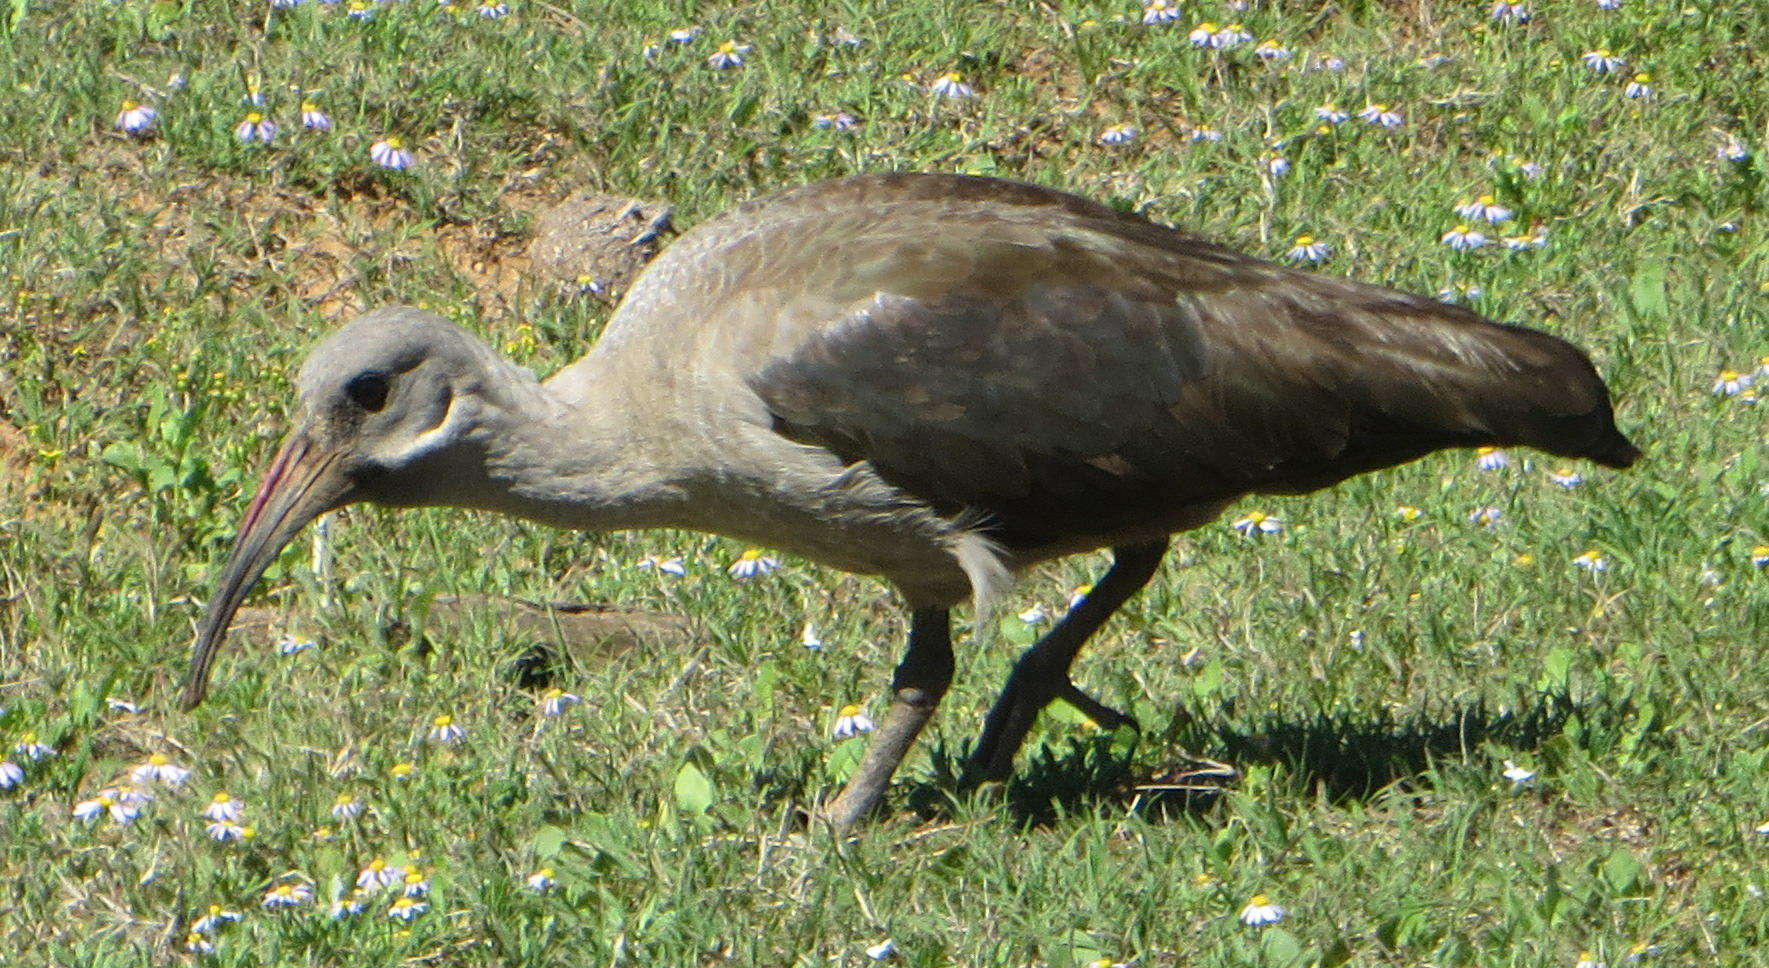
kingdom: Animalia
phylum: Chordata
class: Aves
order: Pelecaniformes
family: Threskiornithidae
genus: Bostrychia
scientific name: Bostrychia hagedash
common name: Hadada ibis
